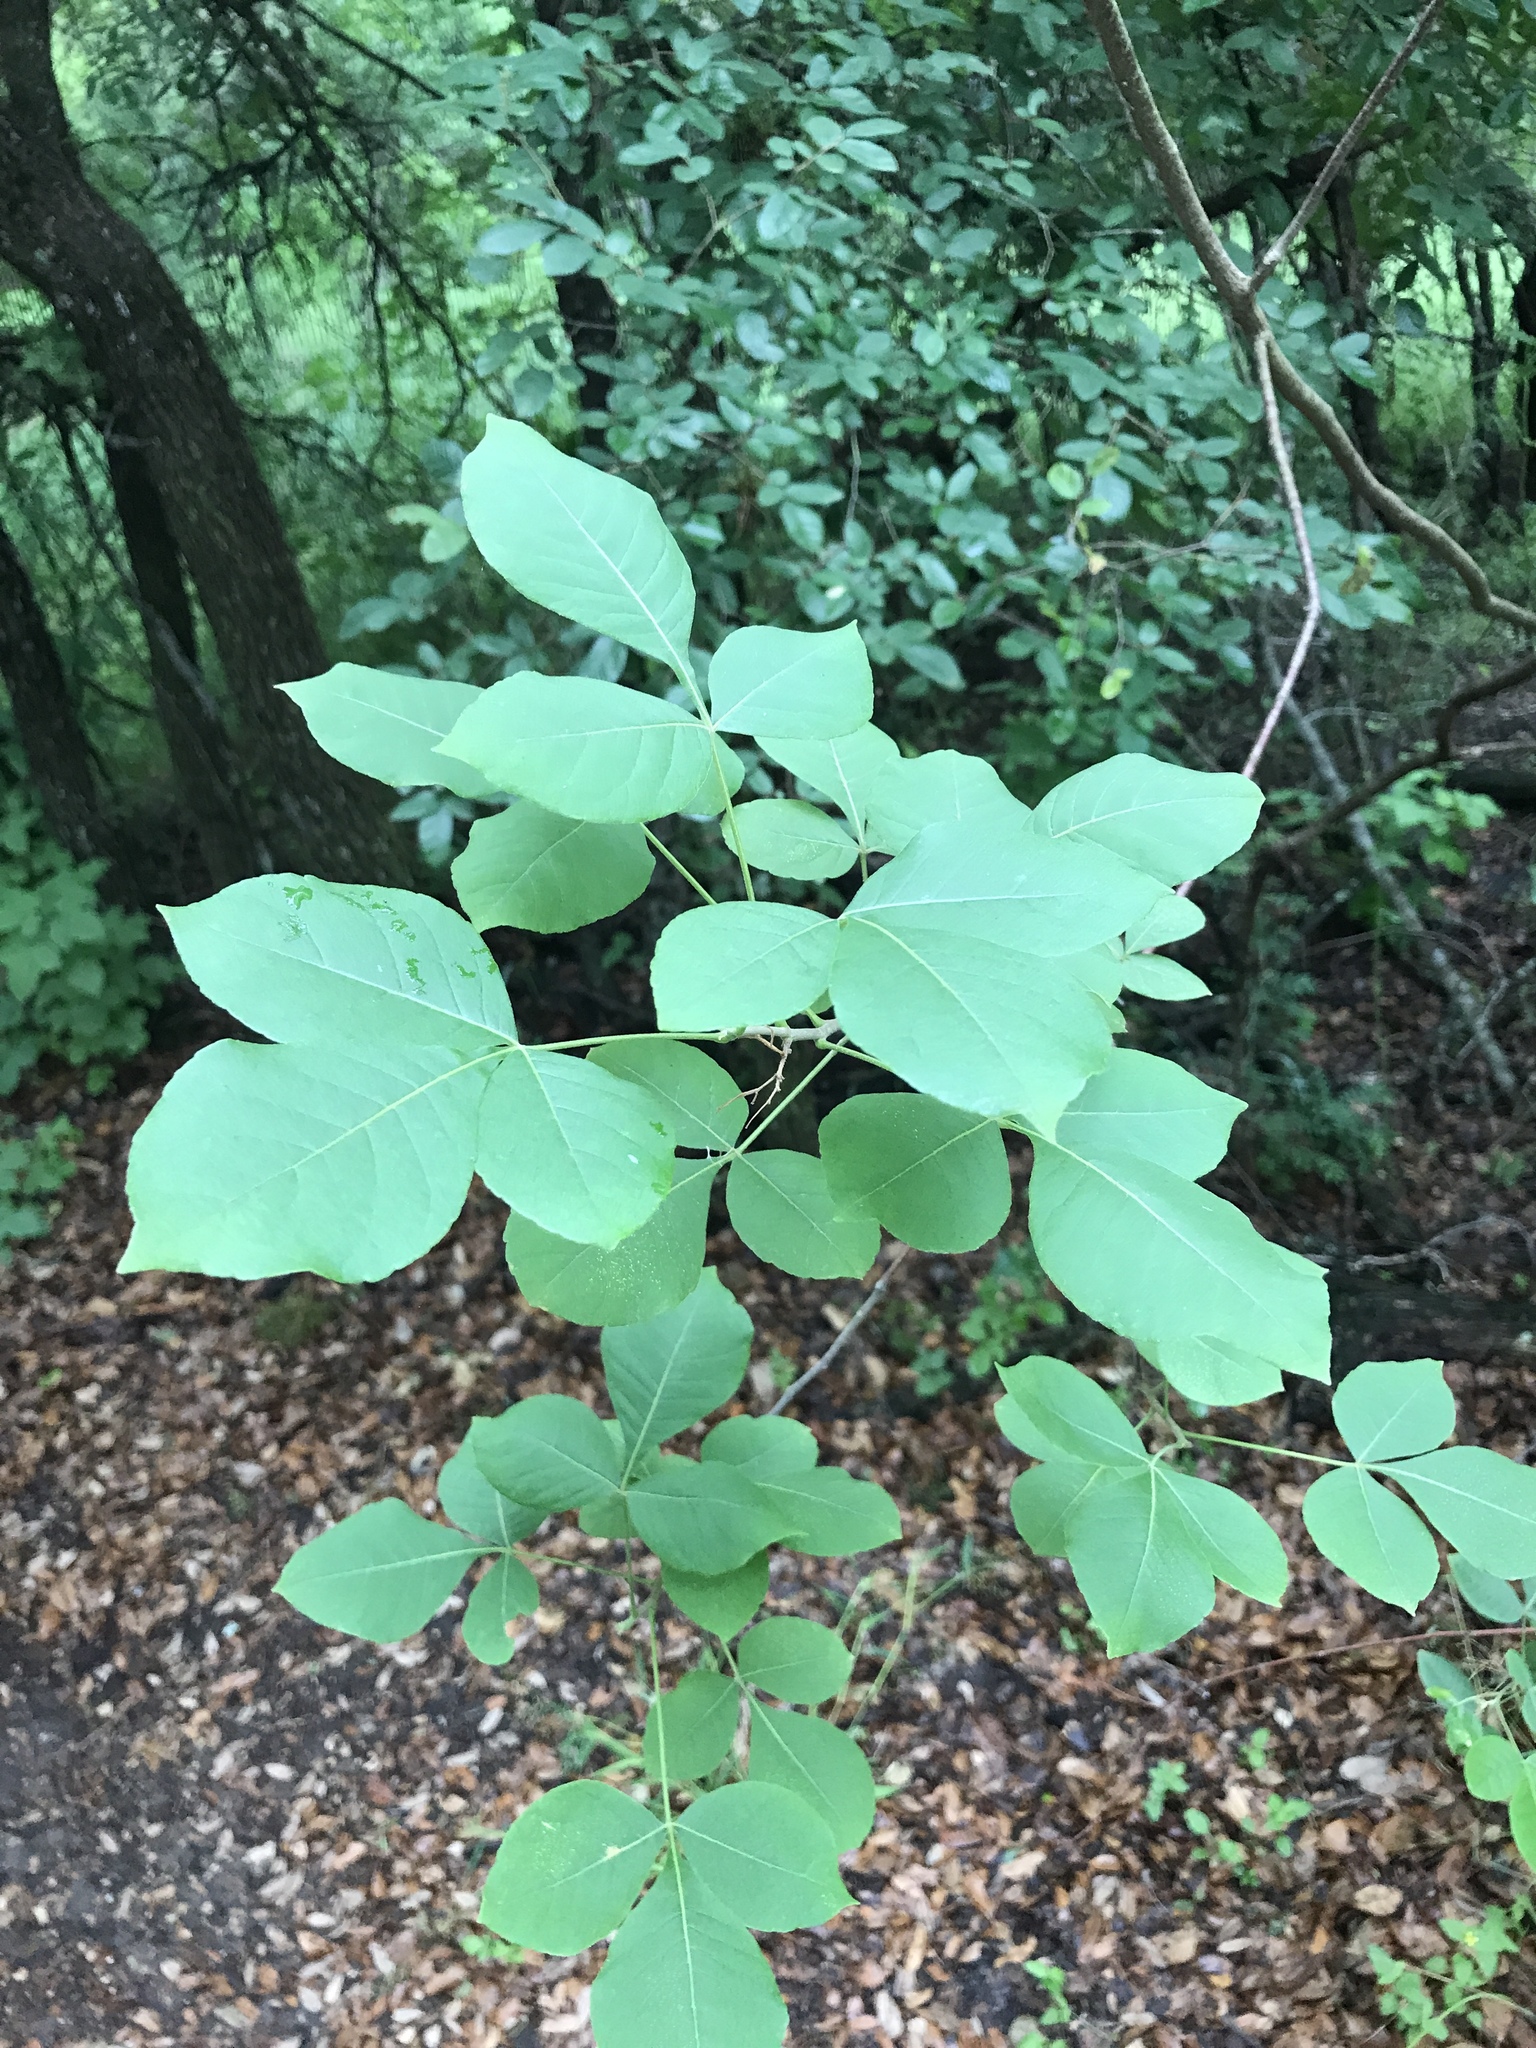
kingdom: Plantae
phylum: Tracheophyta
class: Magnoliopsida
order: Sapindales
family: Rutaceae
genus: Ptelea
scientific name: Ptelea trifoliata
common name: Common hop-tree
